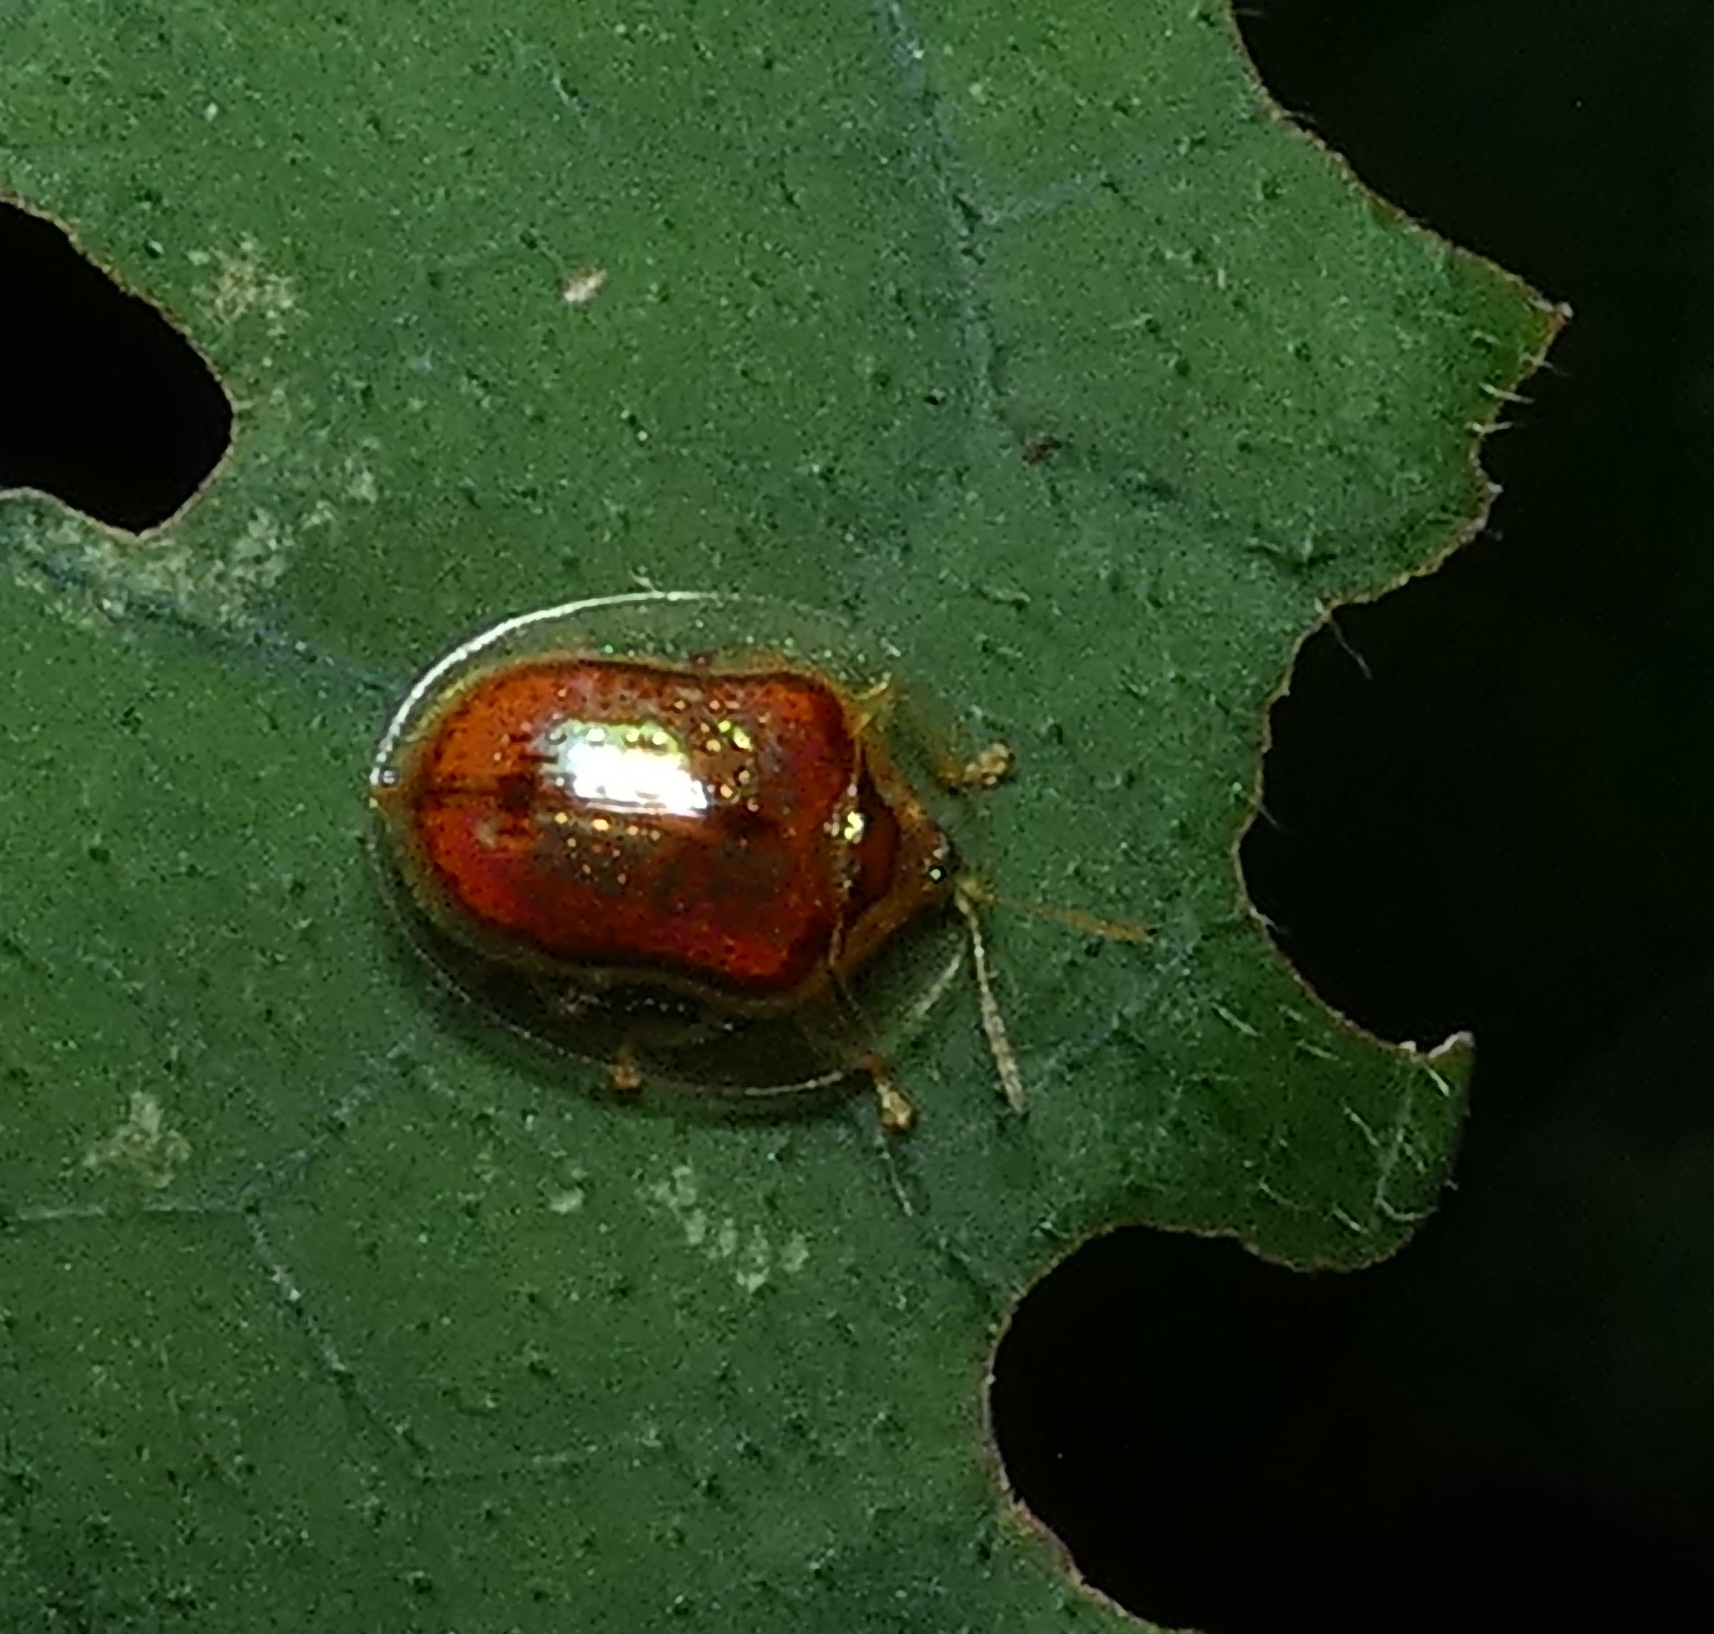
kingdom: Animalia
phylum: Arthropoda
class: Insecta
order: Coleoptera
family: Chrysomelidae
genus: Microctenochira
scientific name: Microctenochira quadrata
